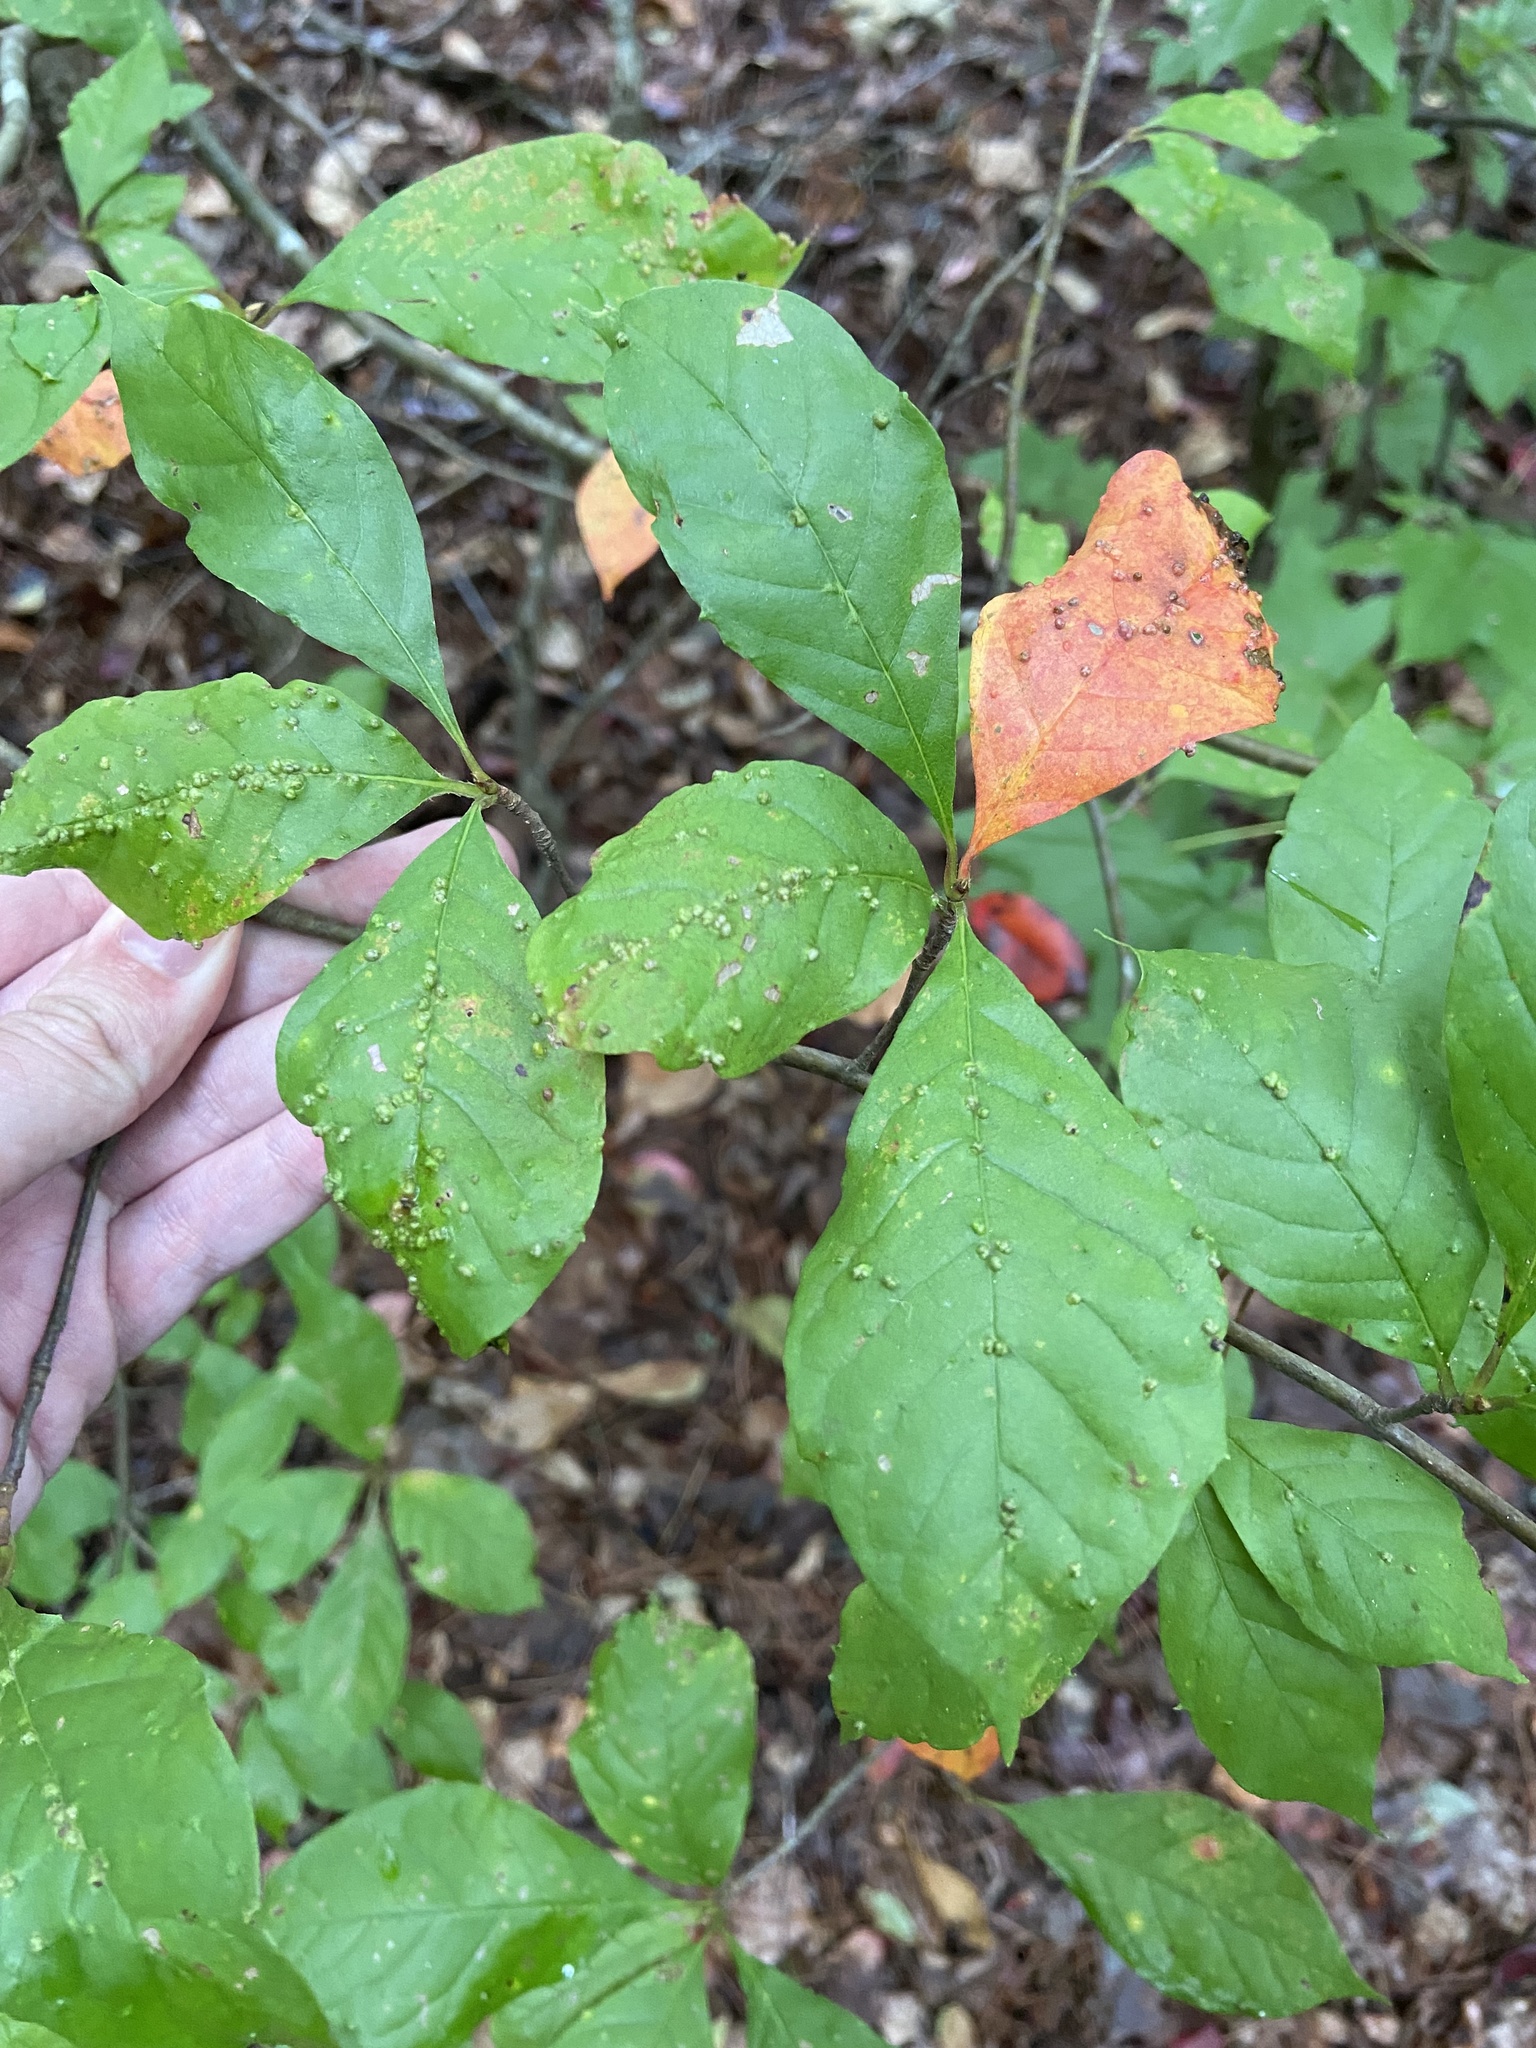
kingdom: Animalia
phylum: Arthropoda
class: Arachnida
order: Trombidiformes
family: Eriophyidae
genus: Aceria
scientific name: Aceria
